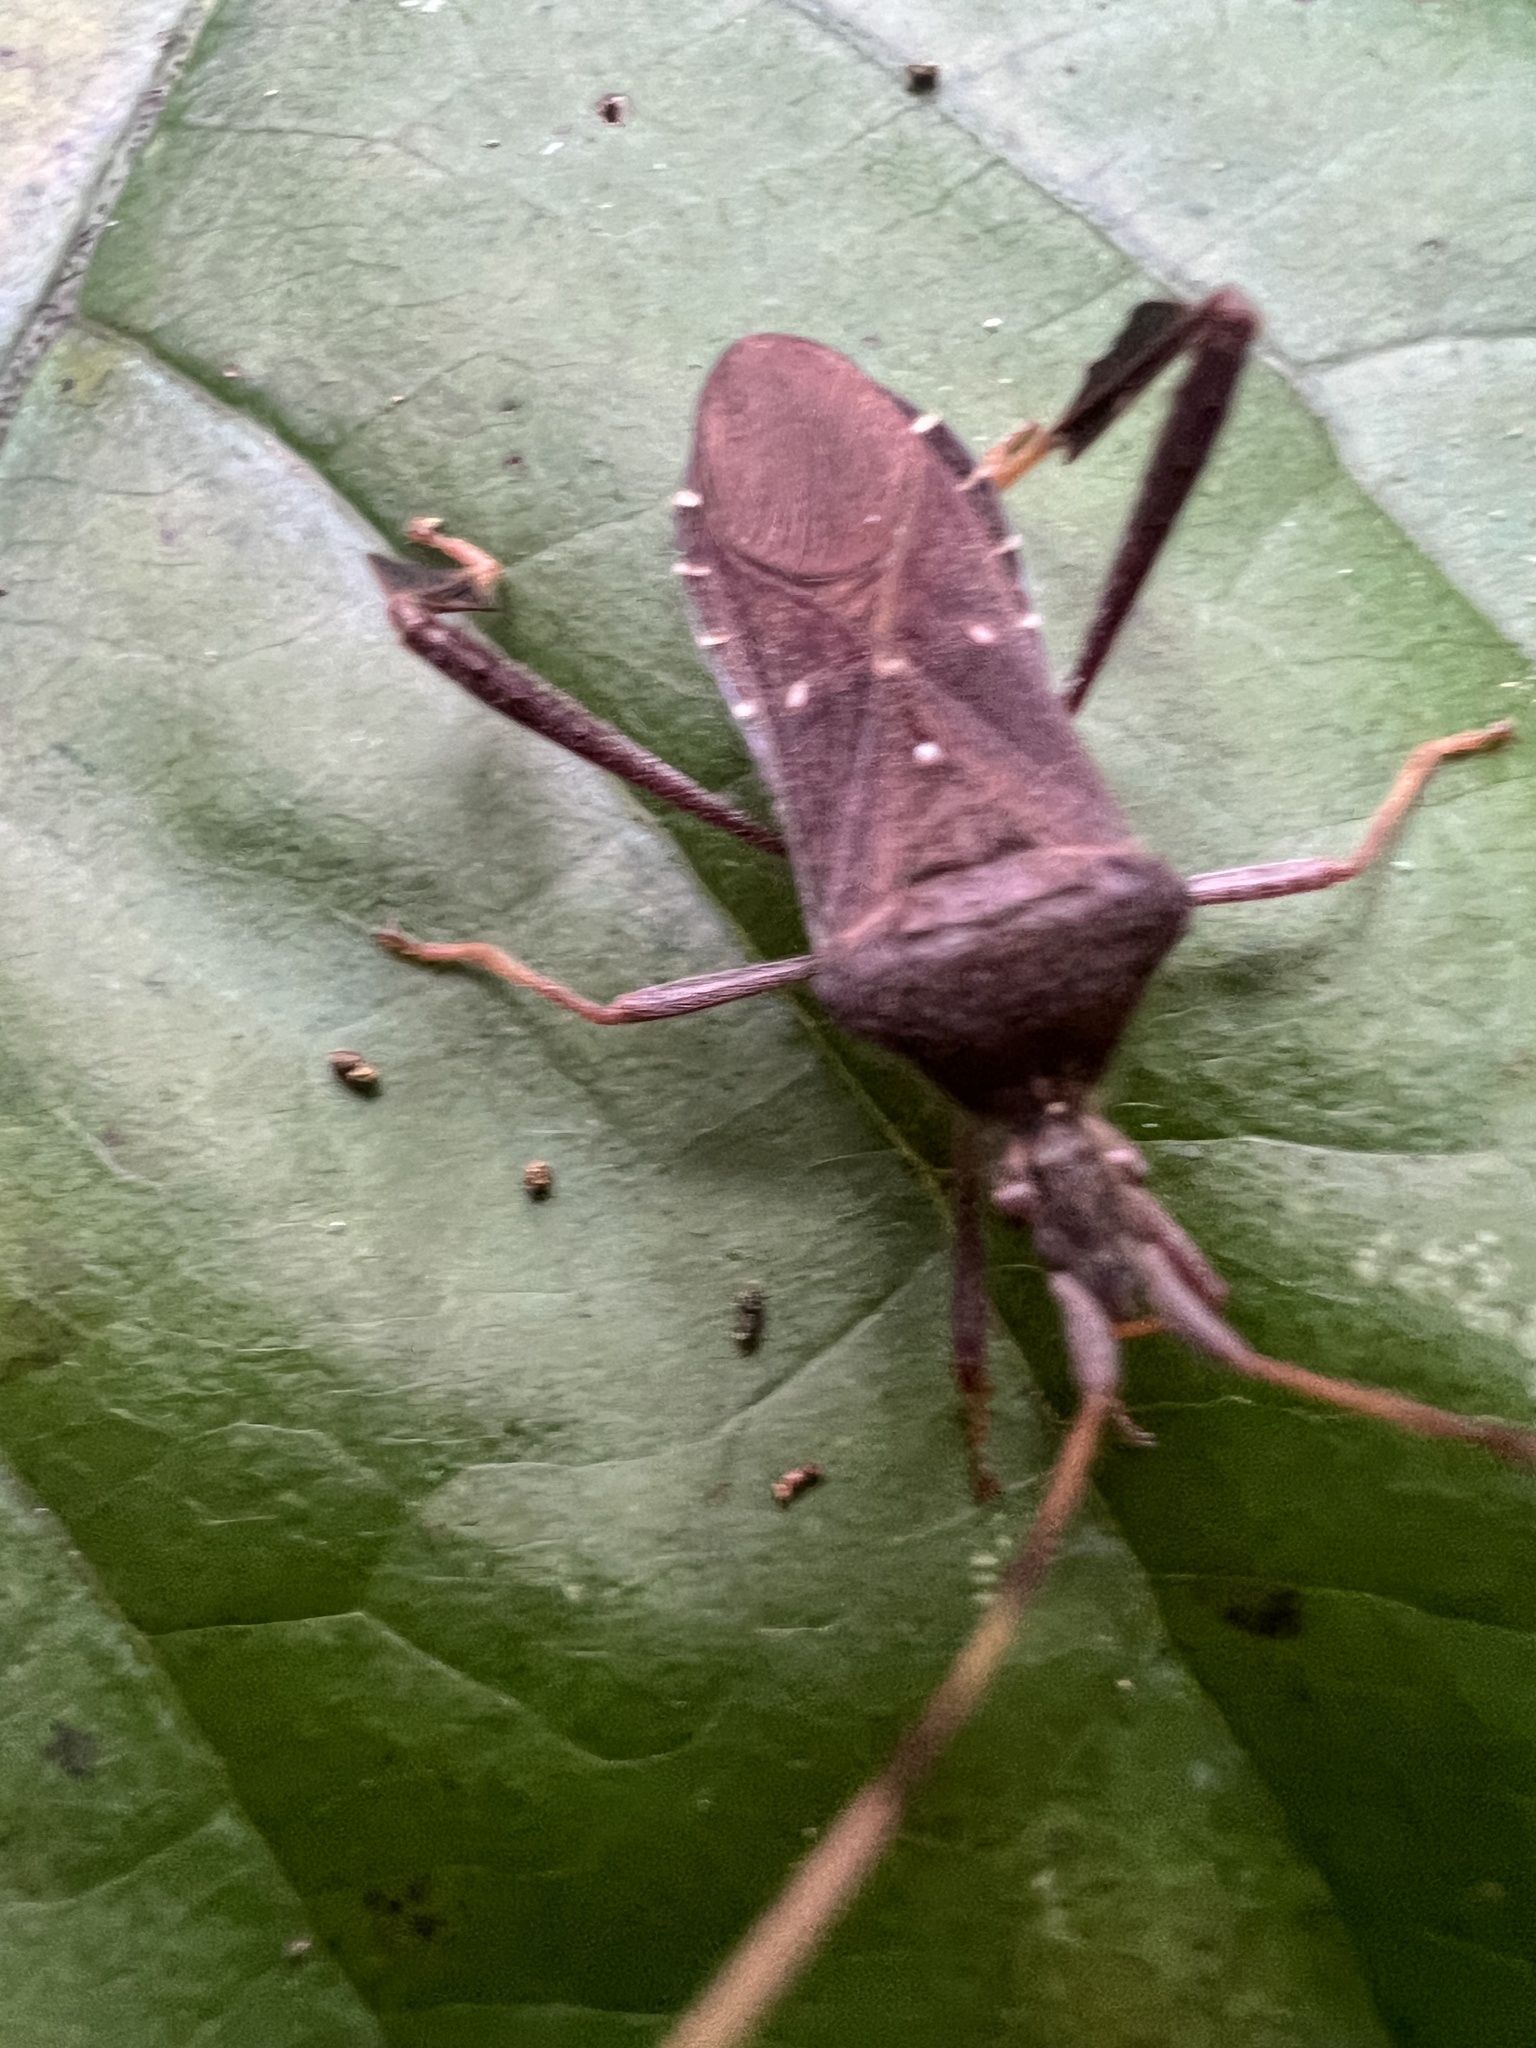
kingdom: Animalia
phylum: Arthropoda
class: Insecta
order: Hemiptera
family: Coreidae
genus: Leptoglossus
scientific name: Leptoglossus oppositus
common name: Northern leaf-footed bug
